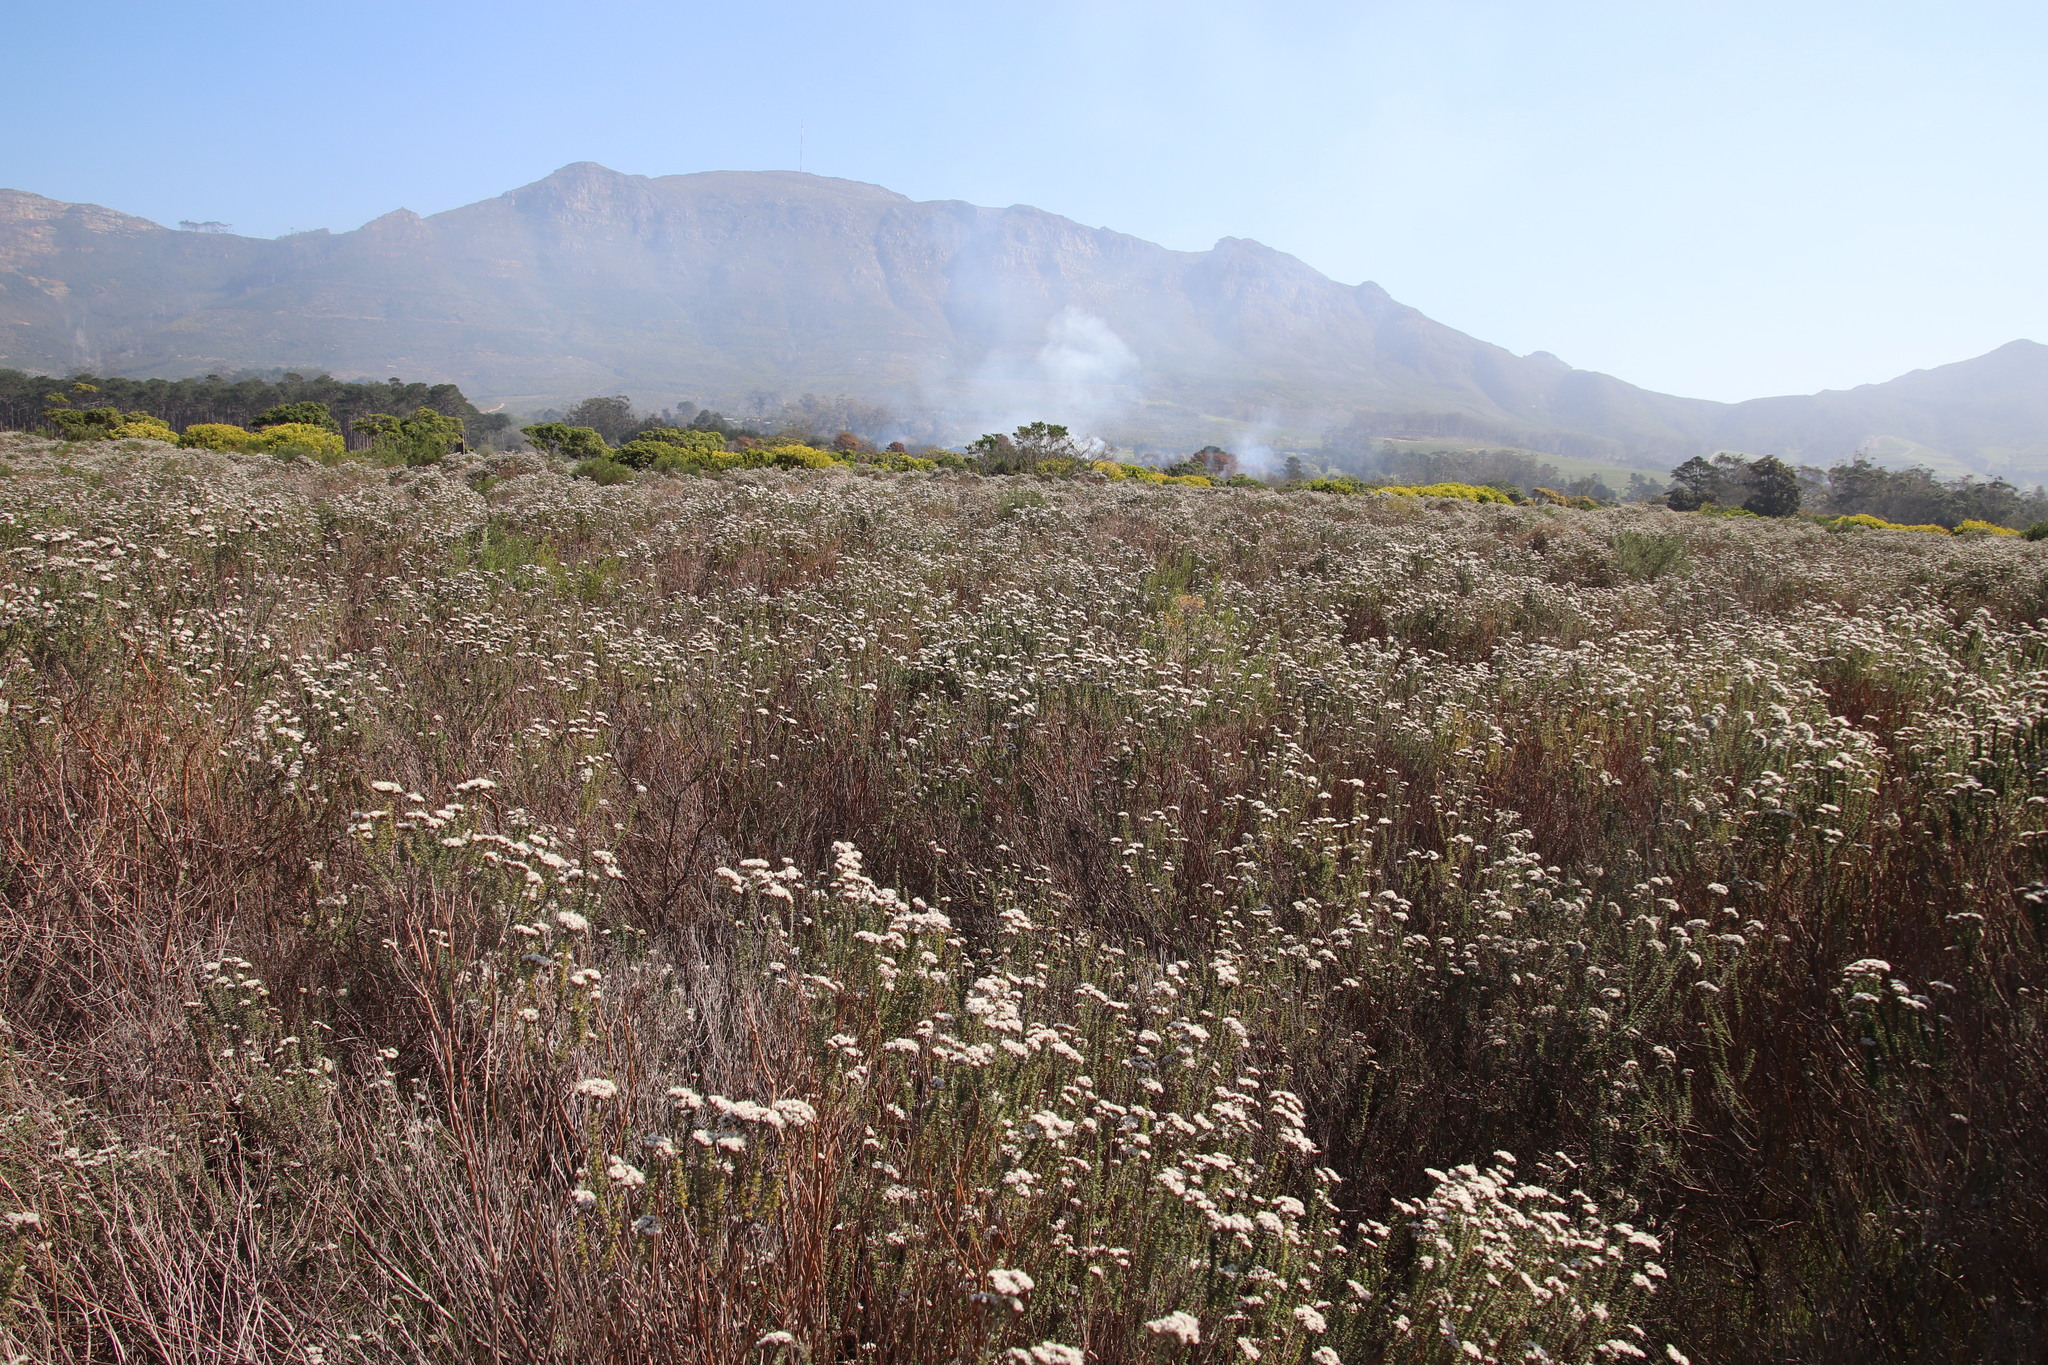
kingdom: Plantae
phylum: Tracheophyta
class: Magnoliopsida
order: Asterales
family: Asteraceae
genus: Metalasia
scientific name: Metalasia densa
